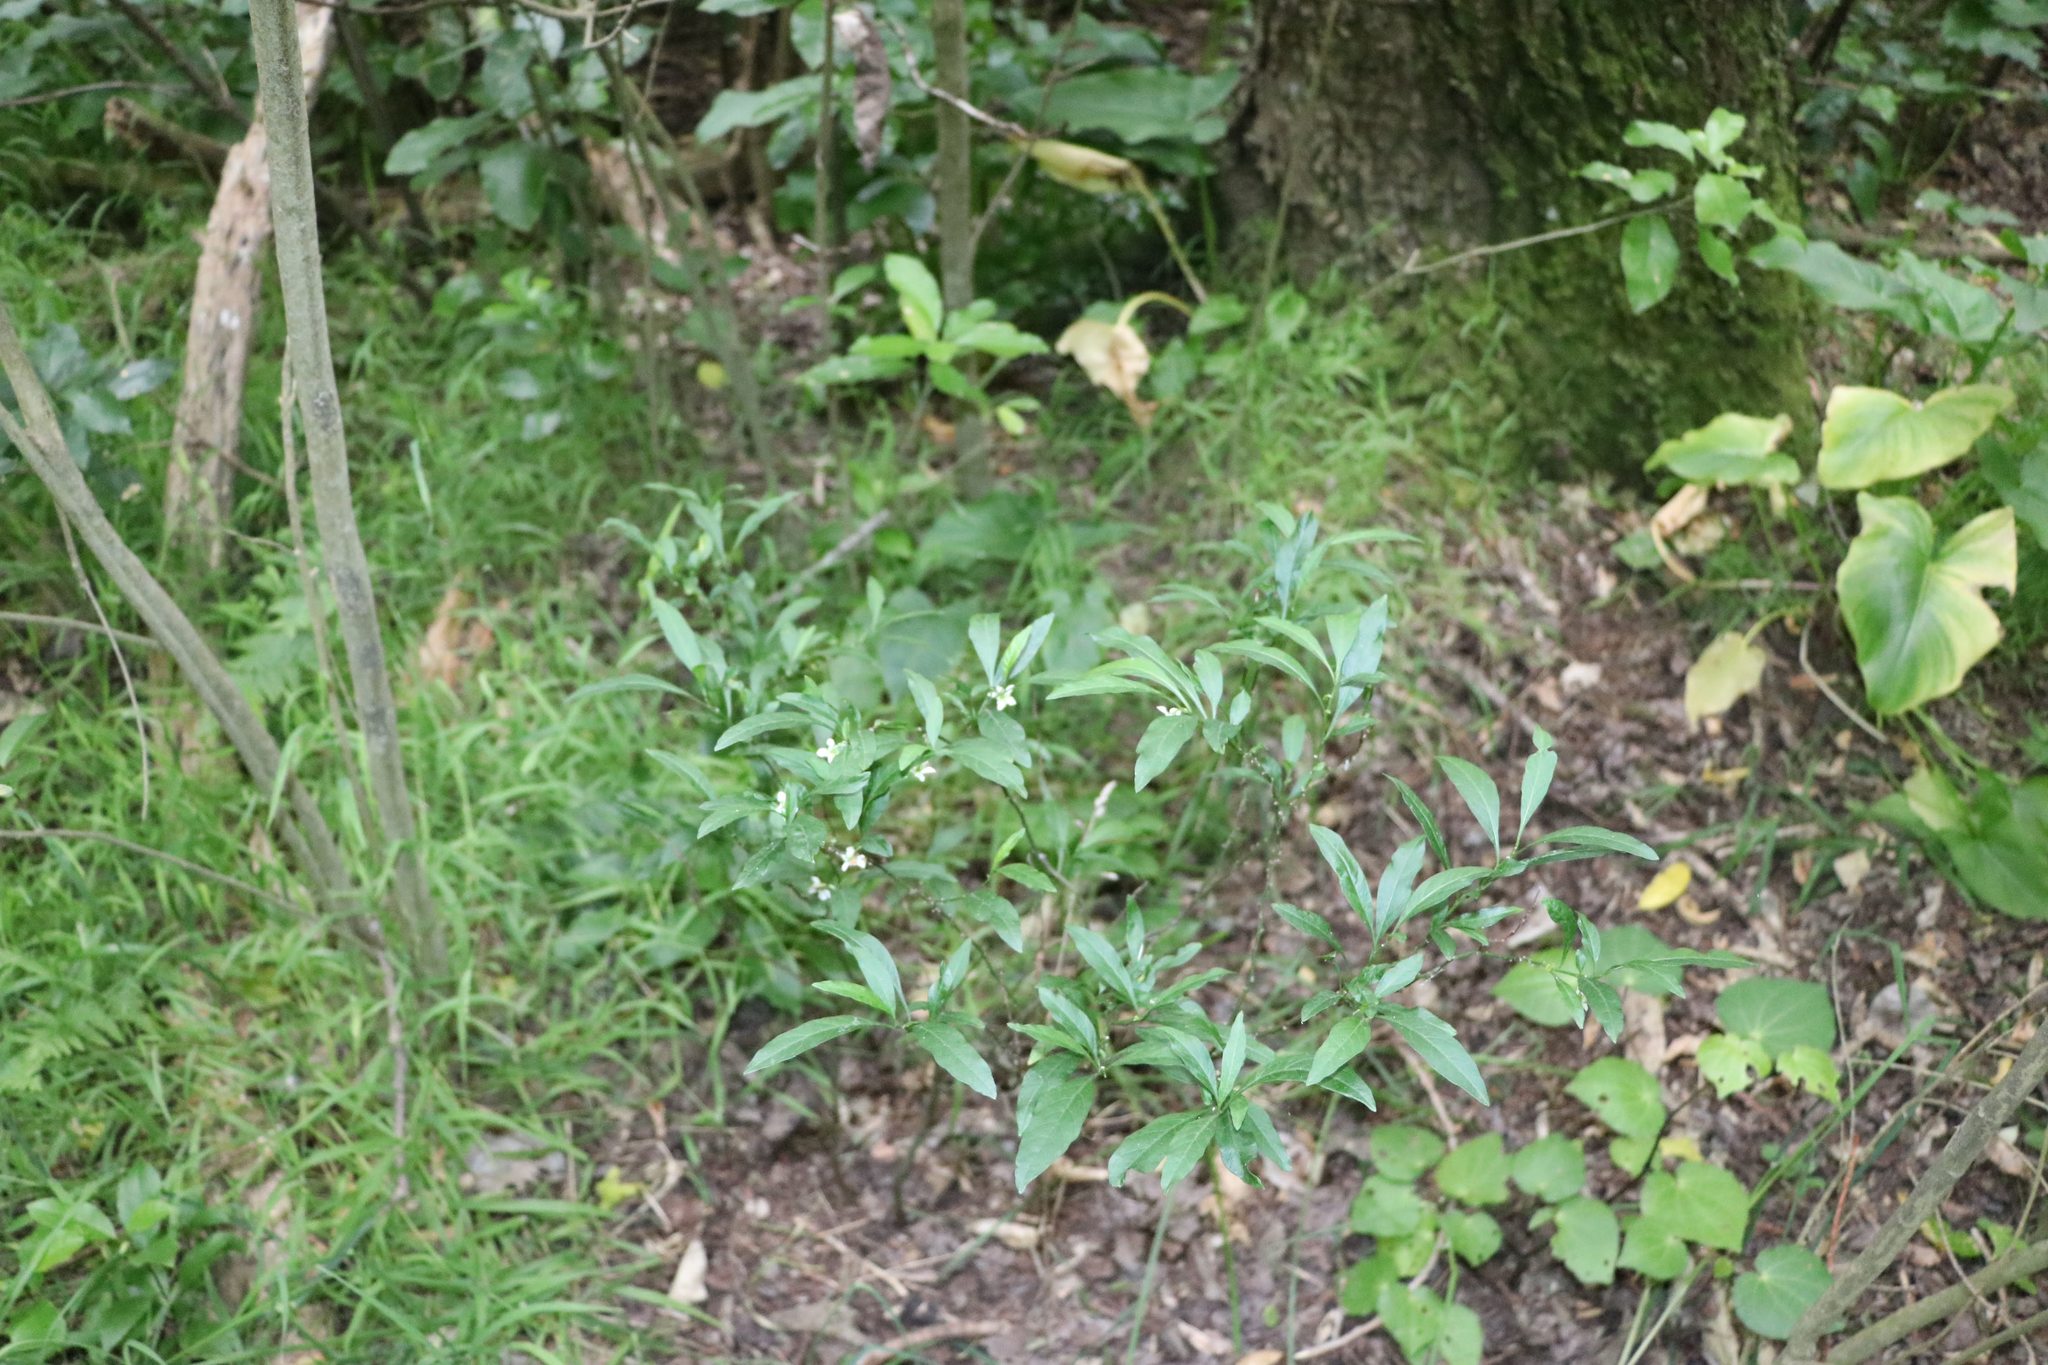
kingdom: Plantae
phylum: Tracheophyta
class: Magnoliopsida
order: Solanales
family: Solanaceae
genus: Solanum
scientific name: Solanum pseudocapsicum
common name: Jerusalem cherry
